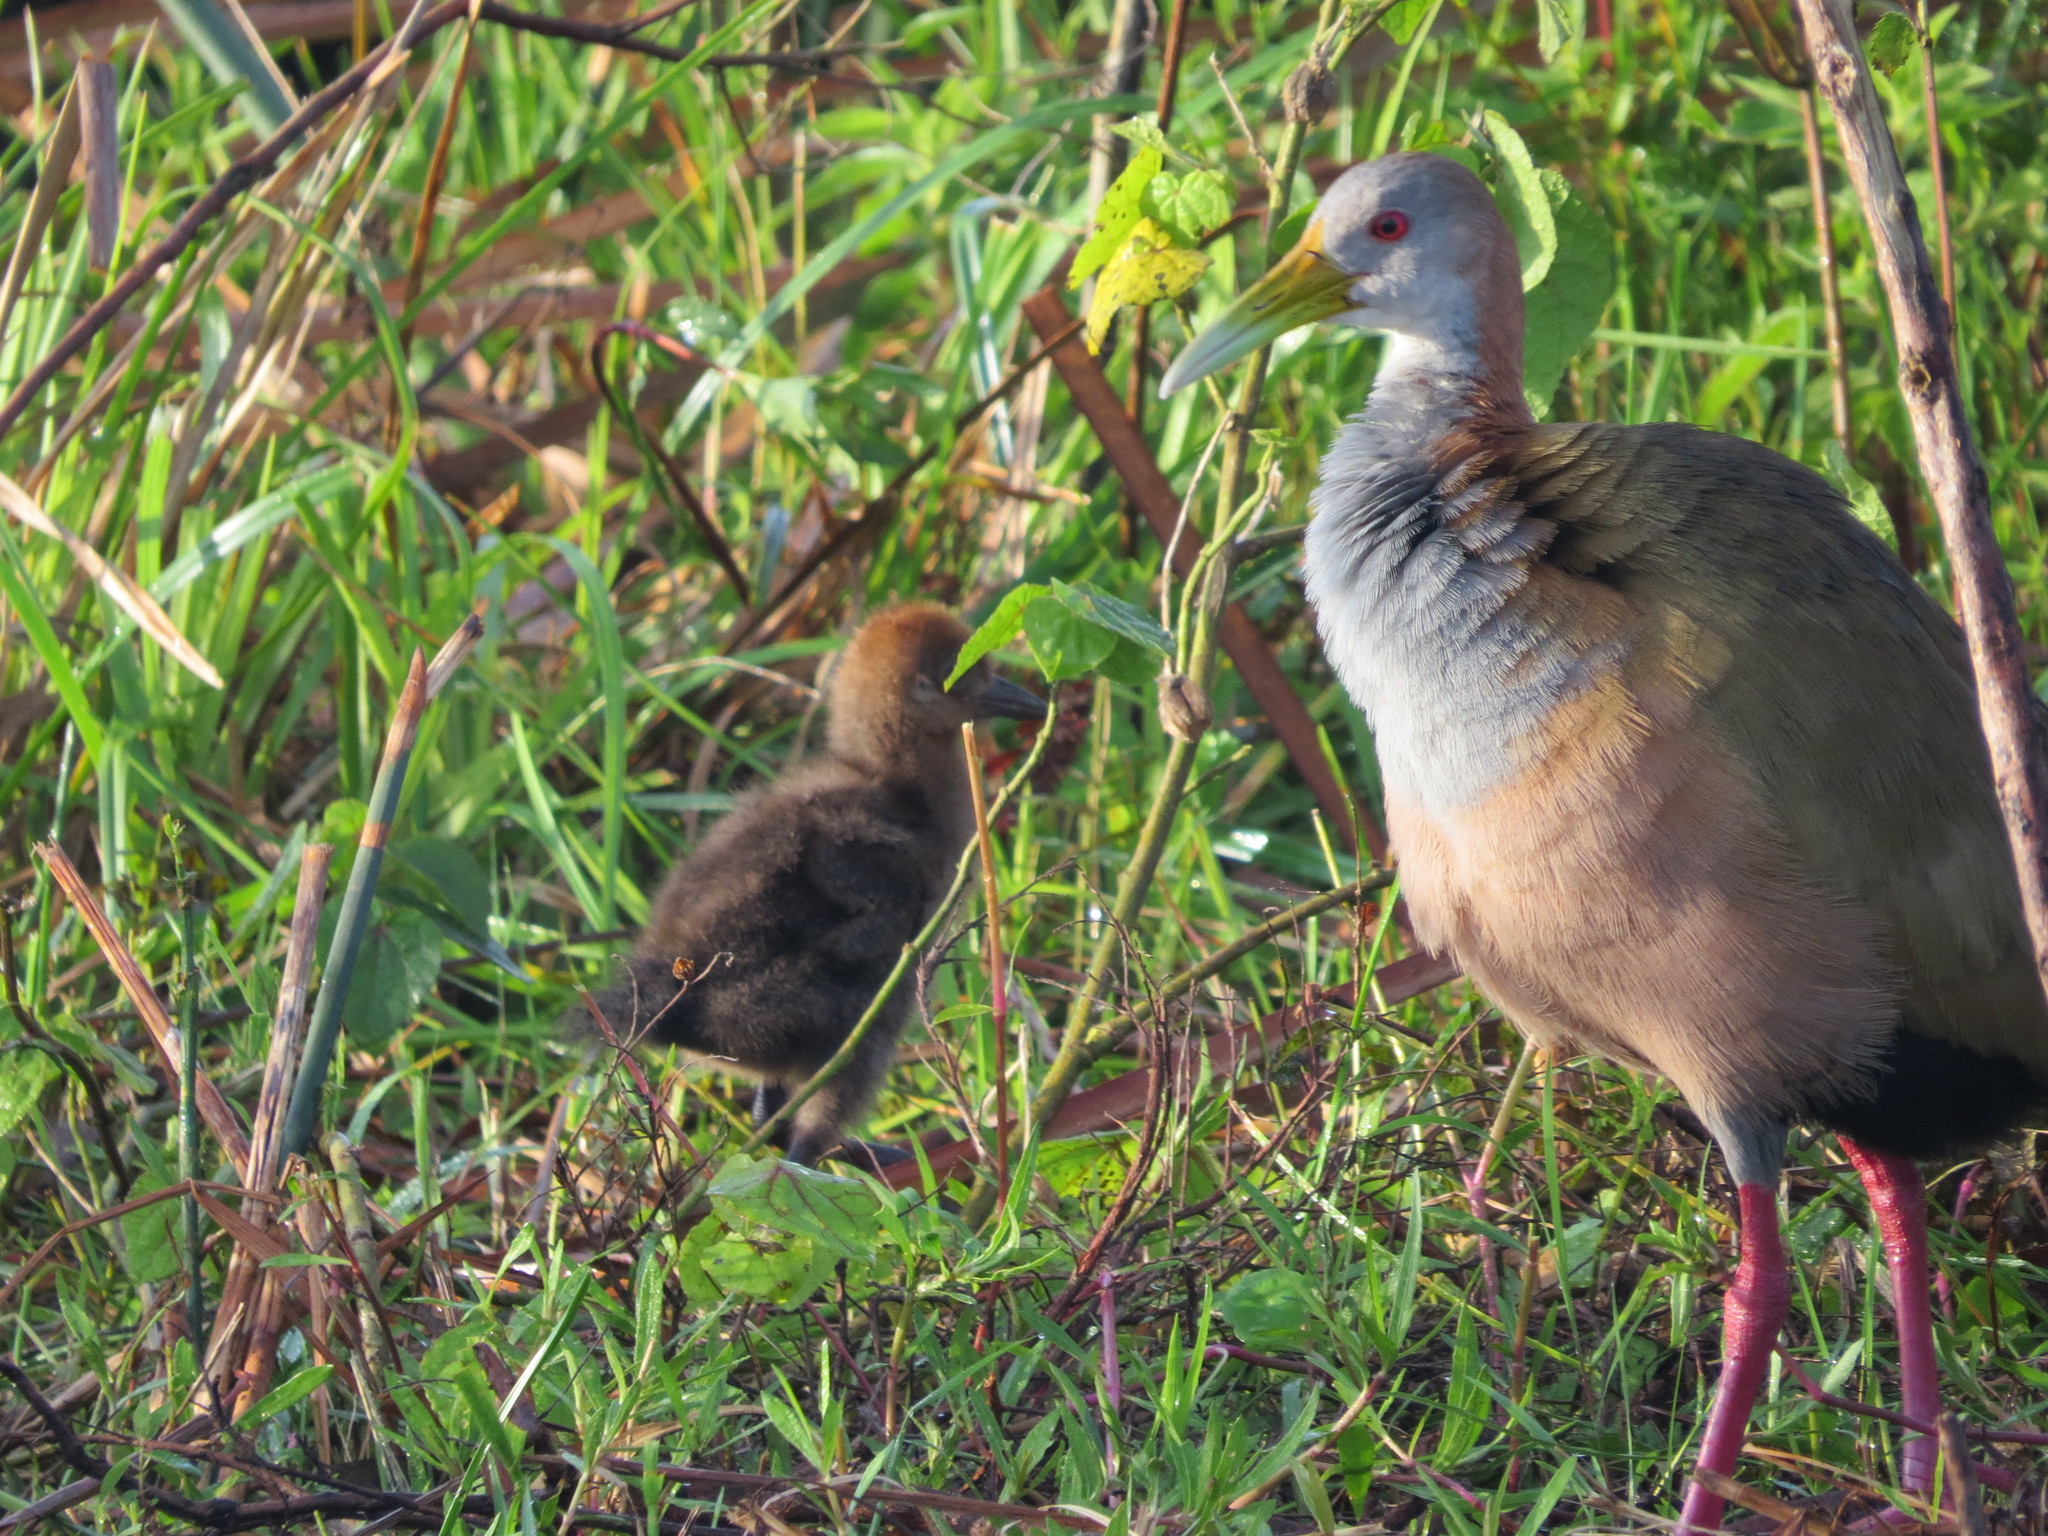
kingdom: Animalia
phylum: Chordata
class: Aves
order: Gruiformes
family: Rallidae
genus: Aramides
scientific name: Aramides ypecaha
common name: Giant wood rail
